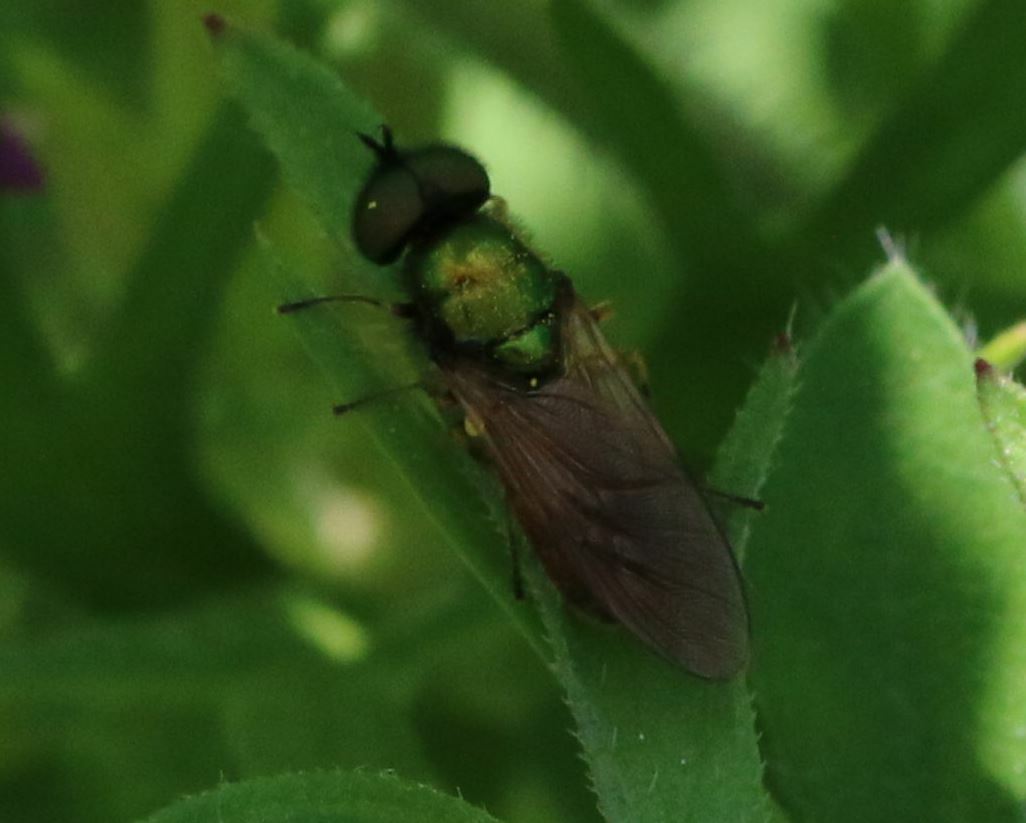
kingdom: Animalia
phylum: Arthropoda
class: Insecta
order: Diptera
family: Stratiomyidae
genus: Chloromyia
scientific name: Chloromyia formosa
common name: Soldier fly
